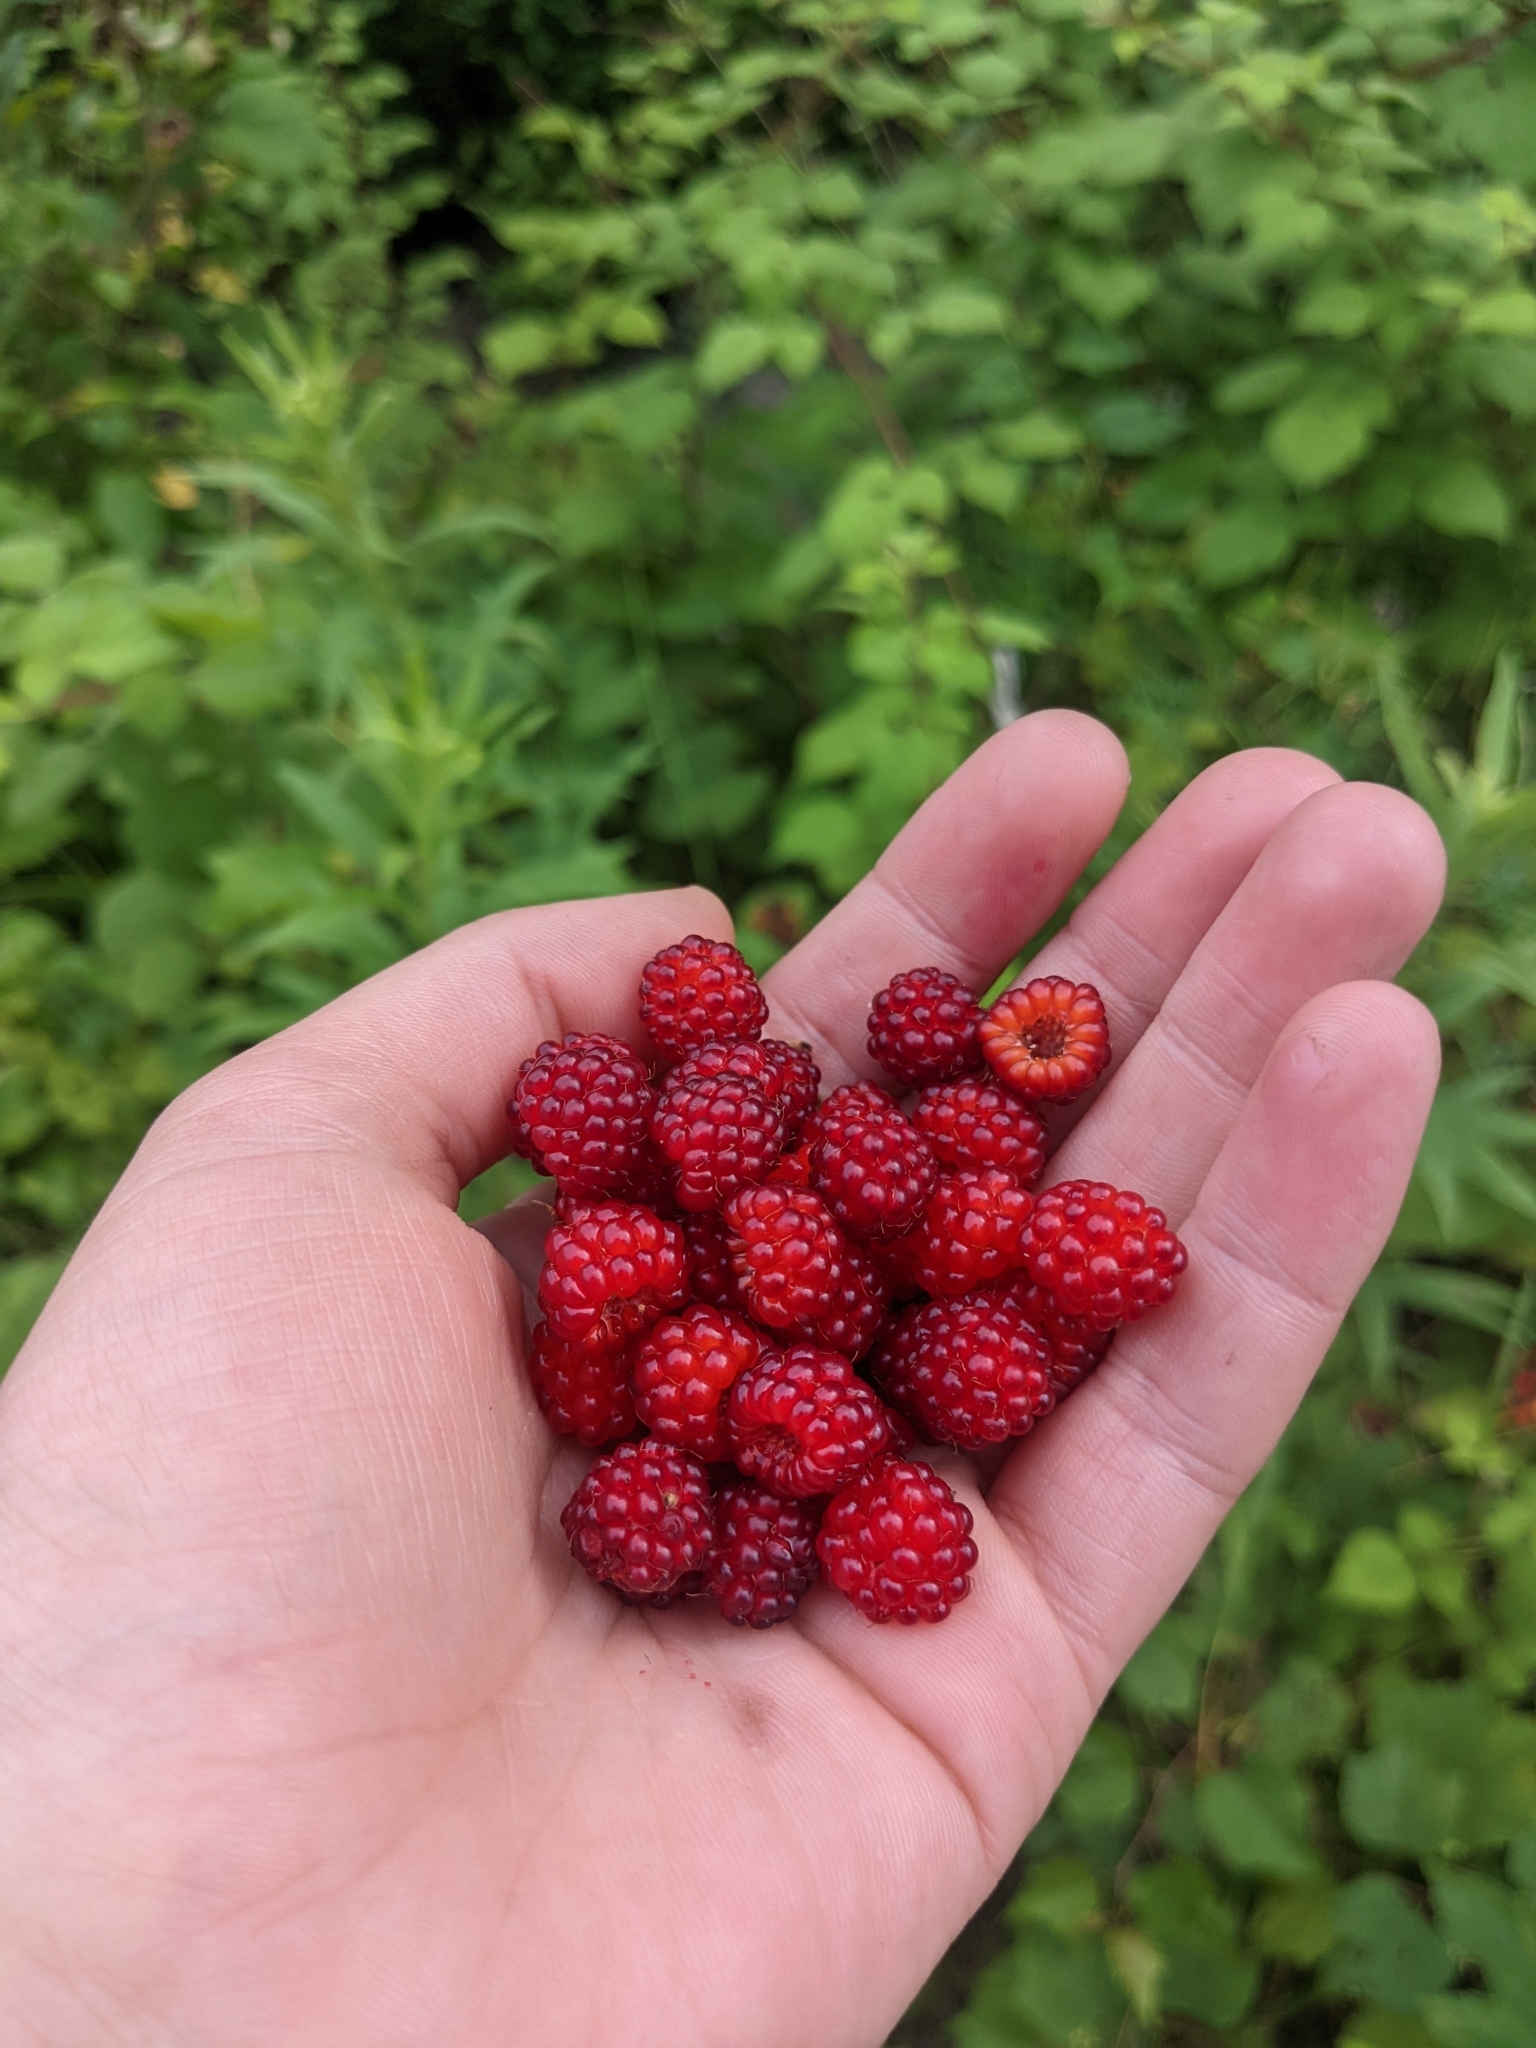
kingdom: Plantae
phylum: Tracheophyta
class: Magnoliopsida
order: Rosales
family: Rosaceae
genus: Rubus
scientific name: Rubus phoenicolasius
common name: Japanese wineberry
